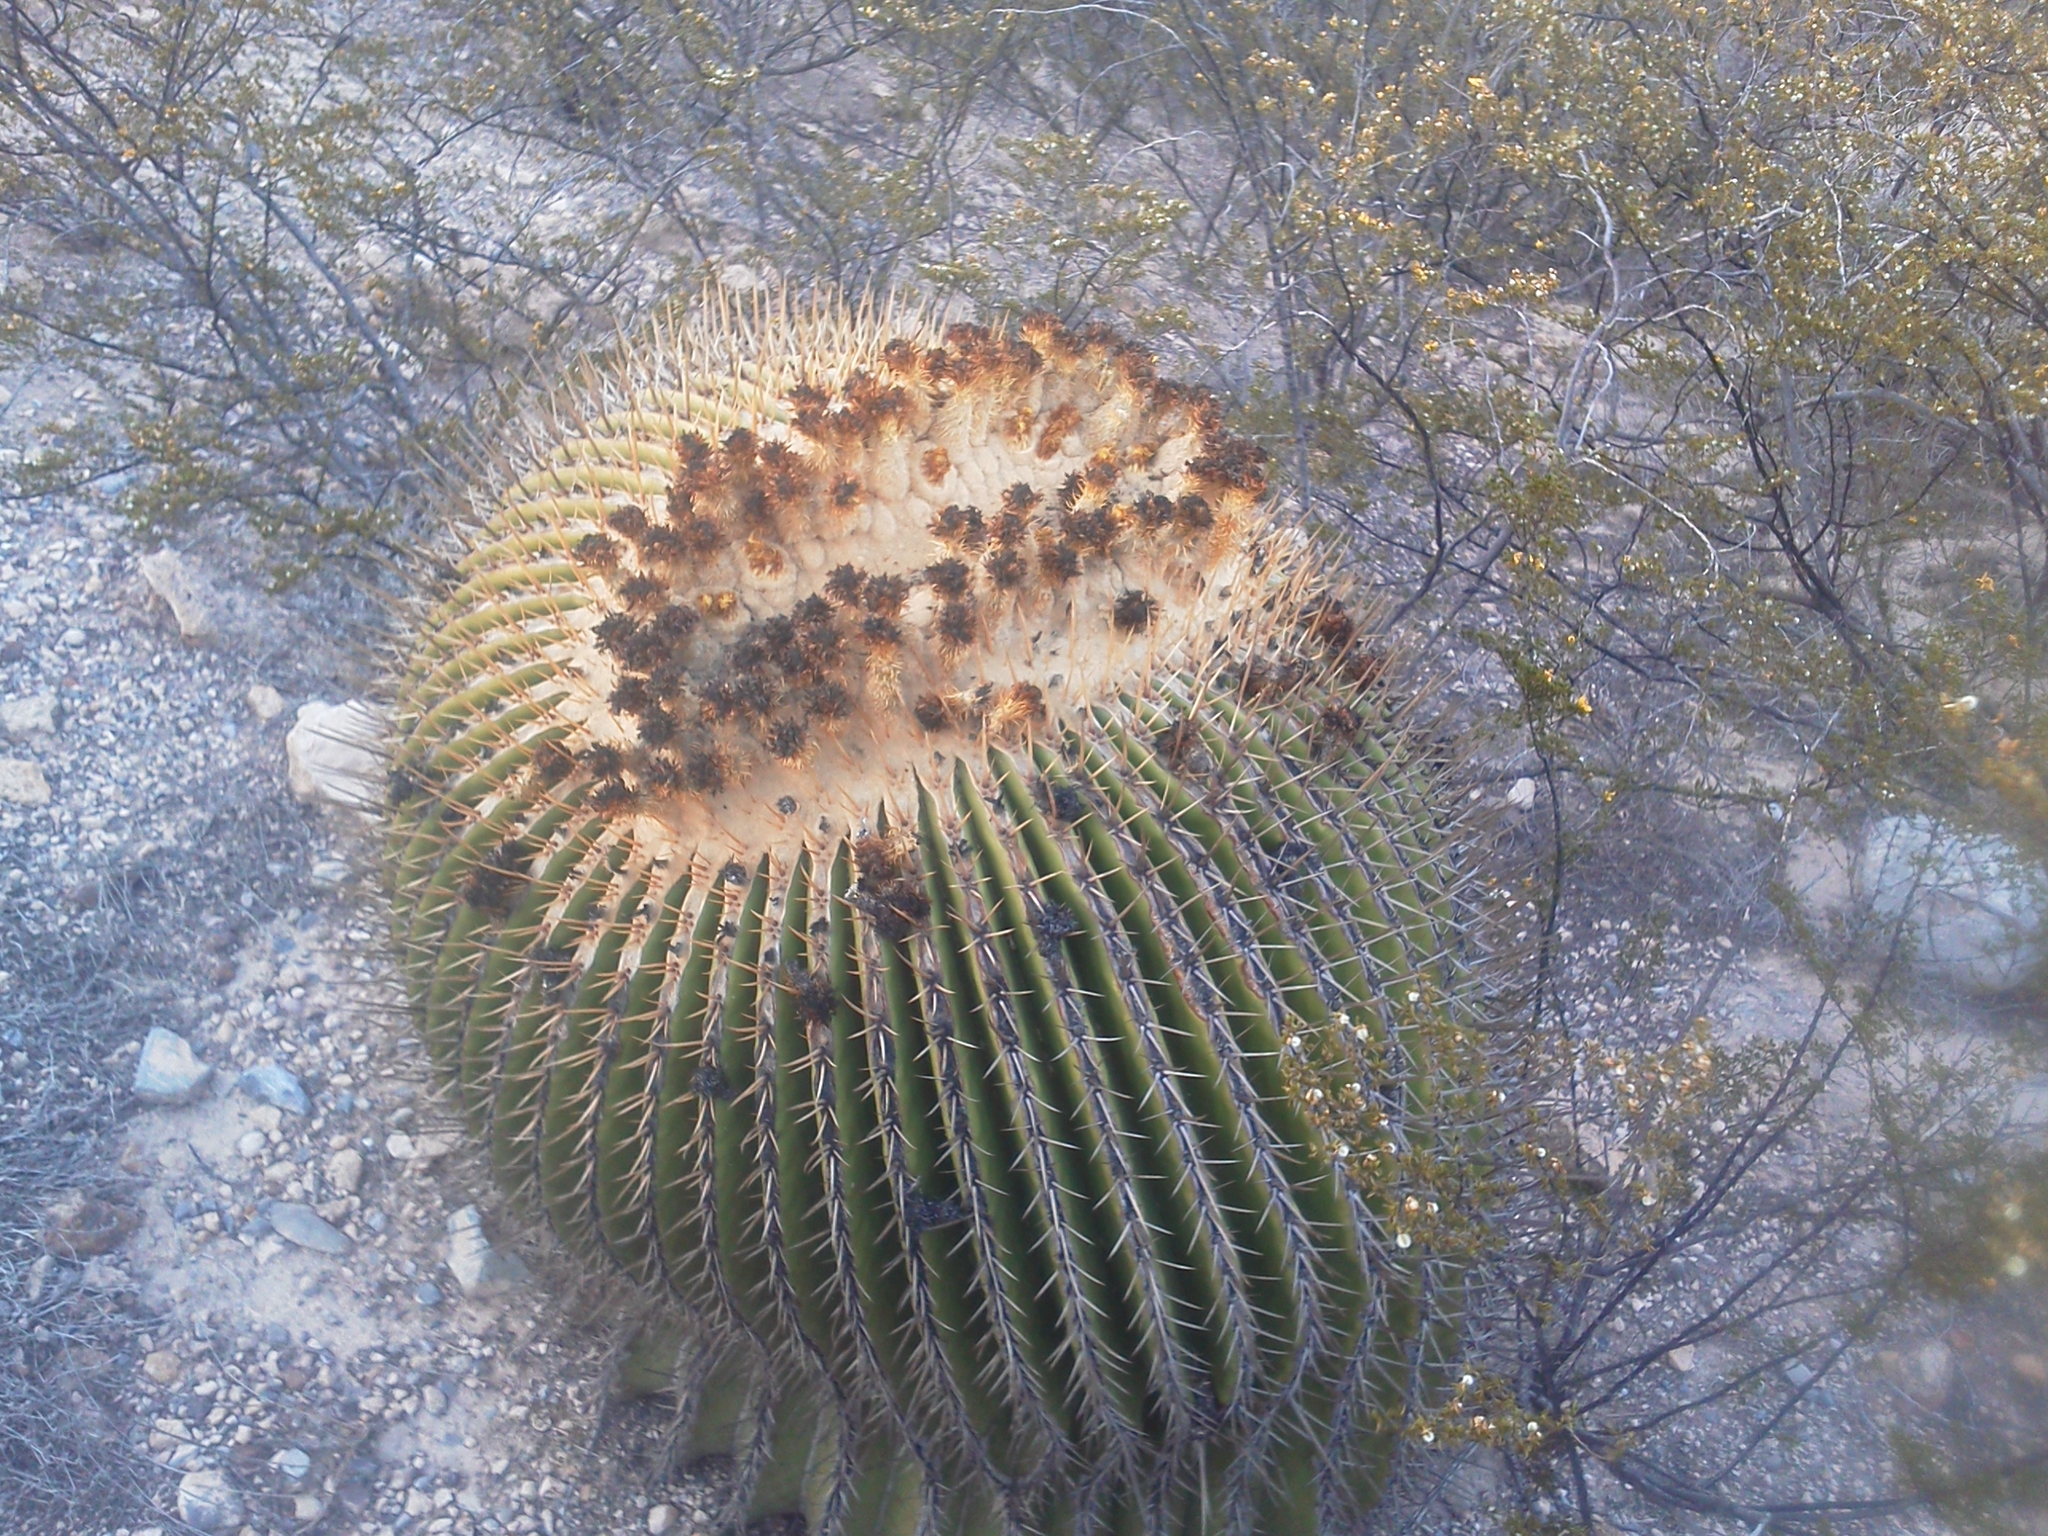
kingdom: Plantae
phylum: Tracheophyta
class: Magnoliopsida
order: Caryophyllales
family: Cactaceae
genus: Echinocactus
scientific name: Echinocactus platyacanthus
